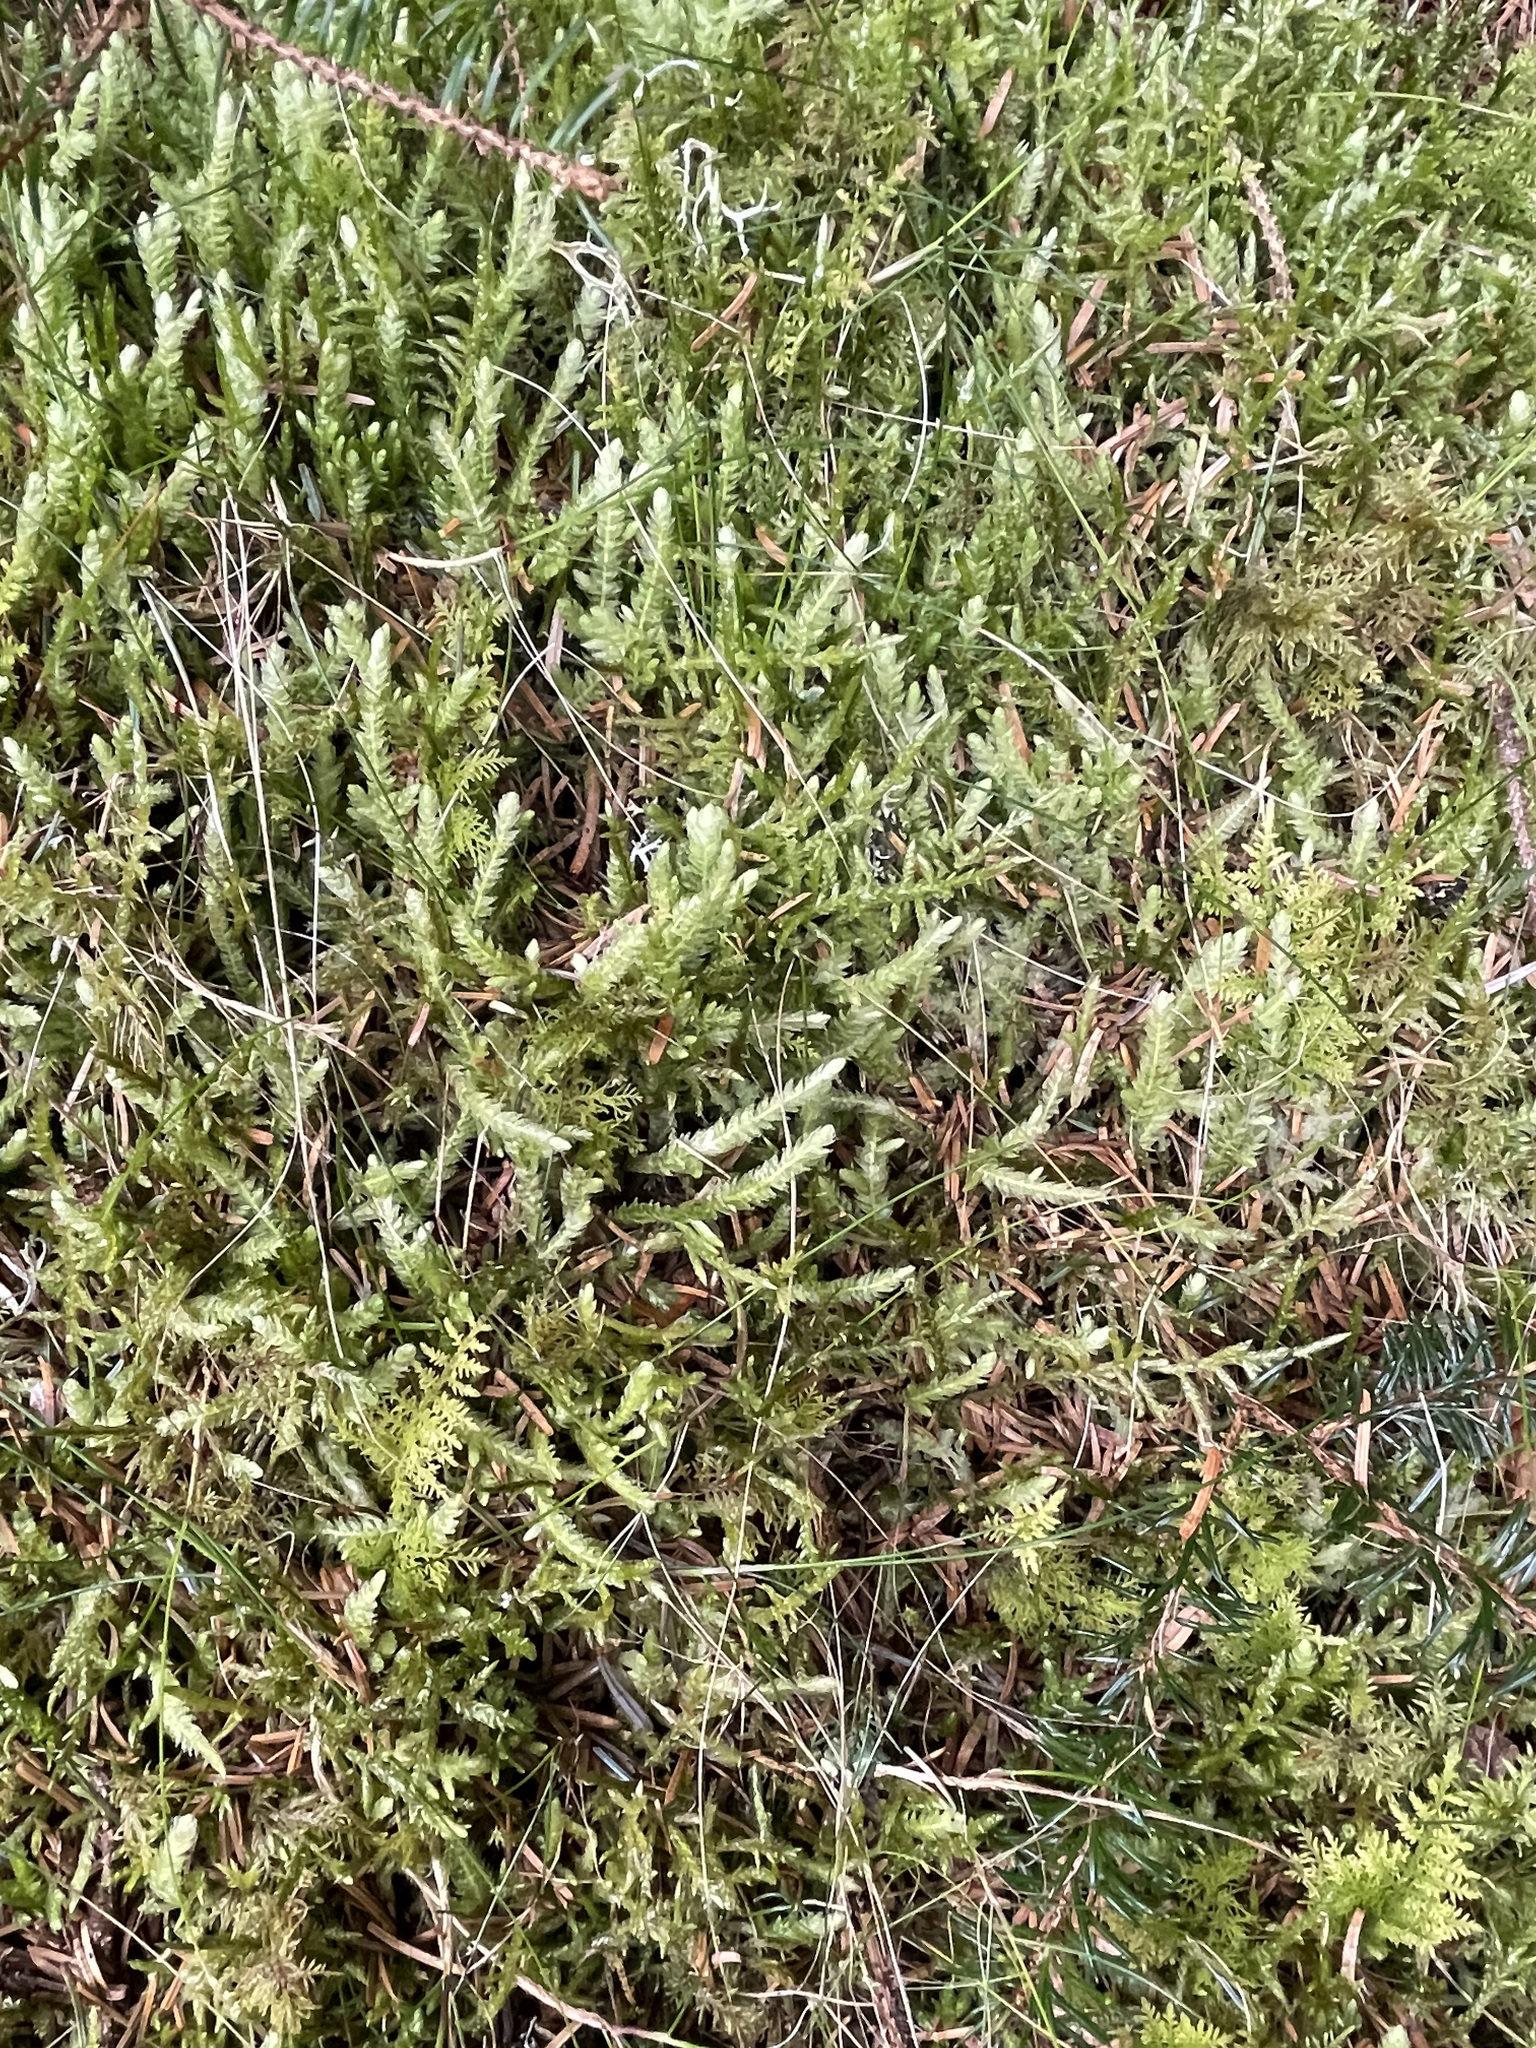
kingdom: Plantae
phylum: Bryophyta
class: Bryopsida
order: Hypnales
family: Plagiotheciaceae
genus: Plagiothecium
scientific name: Plagiothecium undulatum
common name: Waved silk-moss
